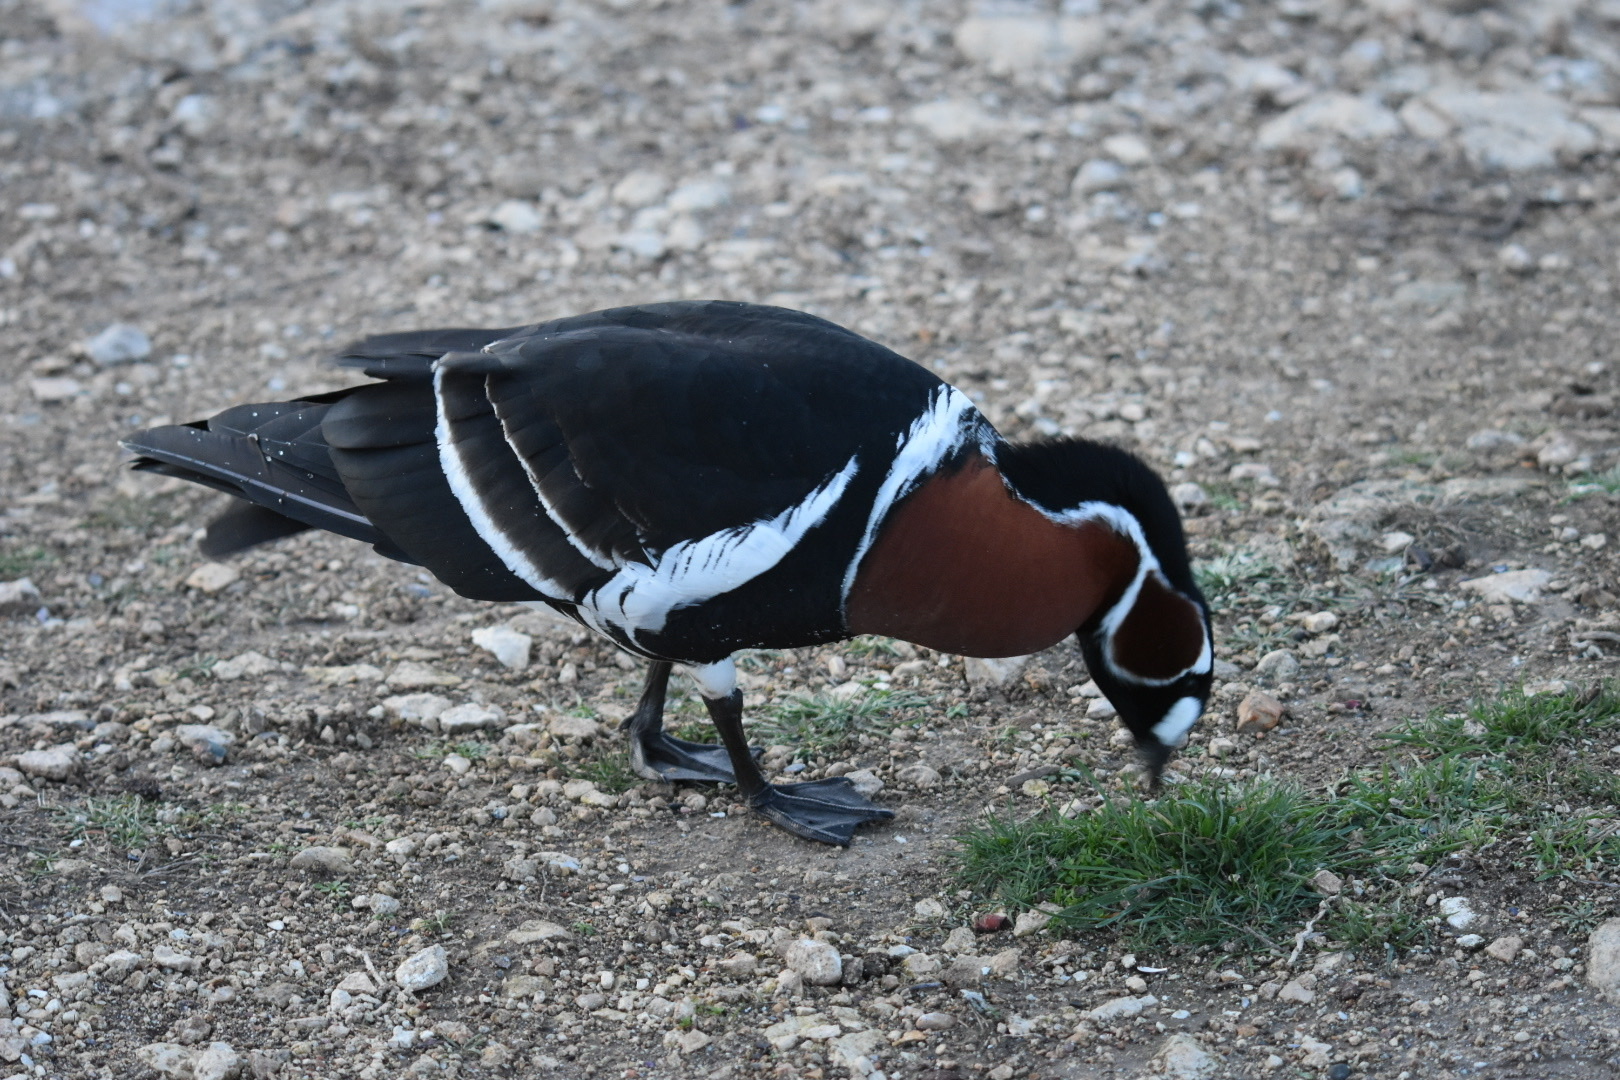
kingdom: Animalia
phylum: Chordata
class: Aves
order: Anseriformes
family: Anatidae
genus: Branta
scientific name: Branta ruficollis
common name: Red-breasted goose
